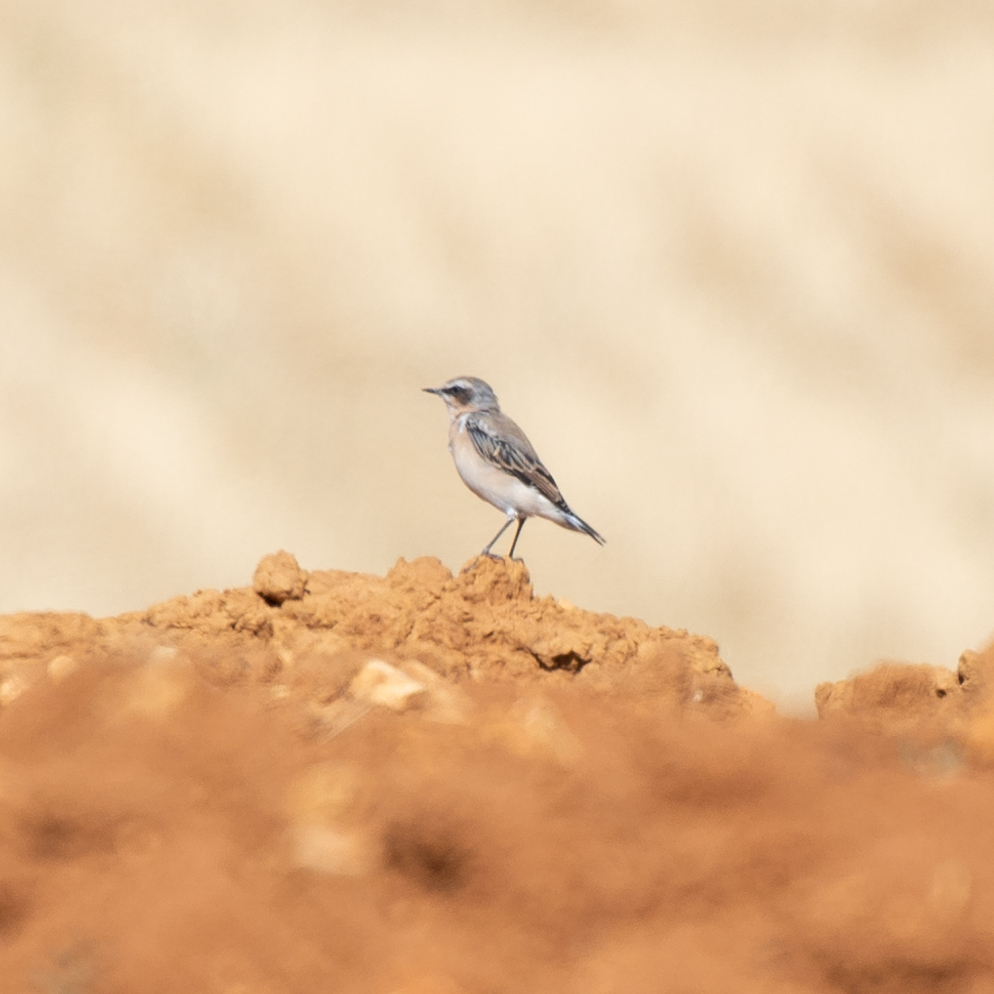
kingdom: Animalia
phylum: Chordata
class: Aves
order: Passeriformes
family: Muscicapidae
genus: Oenanthe
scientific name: Oenanthe oenanthe
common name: Northern wheatear
